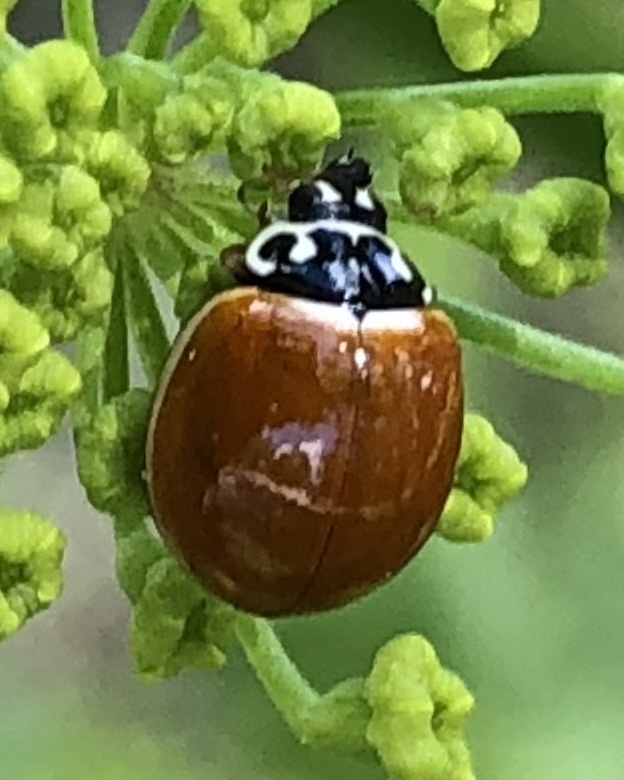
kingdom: Animalia
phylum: Arthropoda
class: Insecta
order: Coleoptera
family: Coccinellidae
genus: Cycloneda
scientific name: Cycloneda munda
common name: Polished lady beetle
